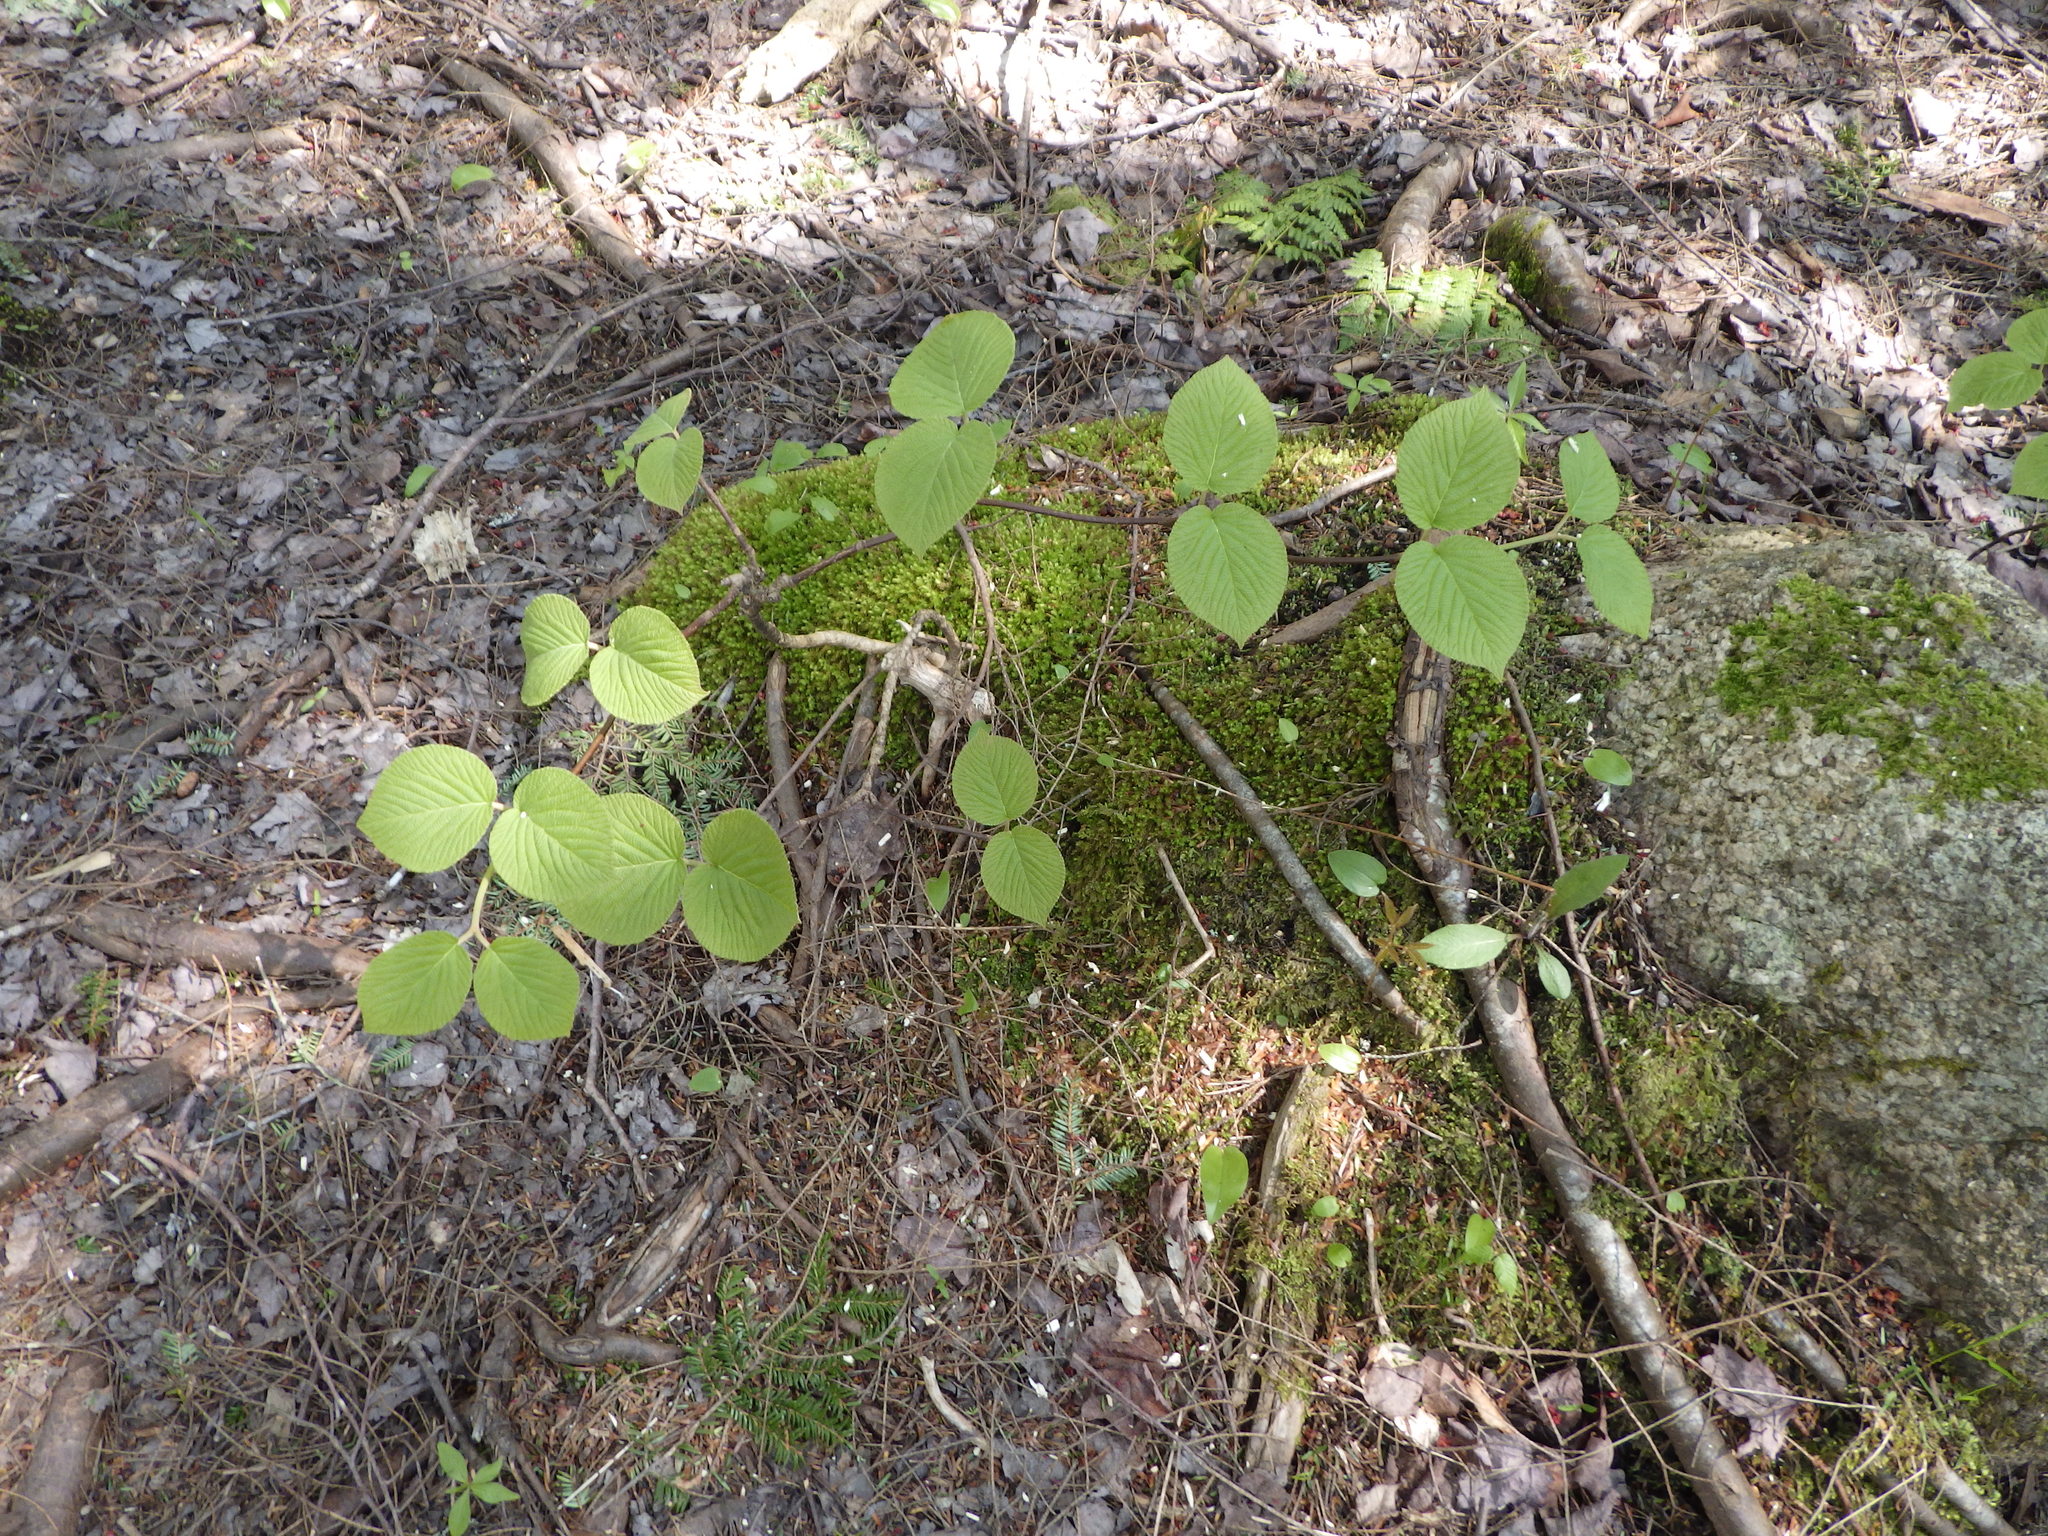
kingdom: Plantae
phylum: Tracheophyta
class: Magnoliopsida
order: Dipsacales
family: Viburnaceae
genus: Viburnum
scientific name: Viburnum lantanoides
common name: Hobblebush
